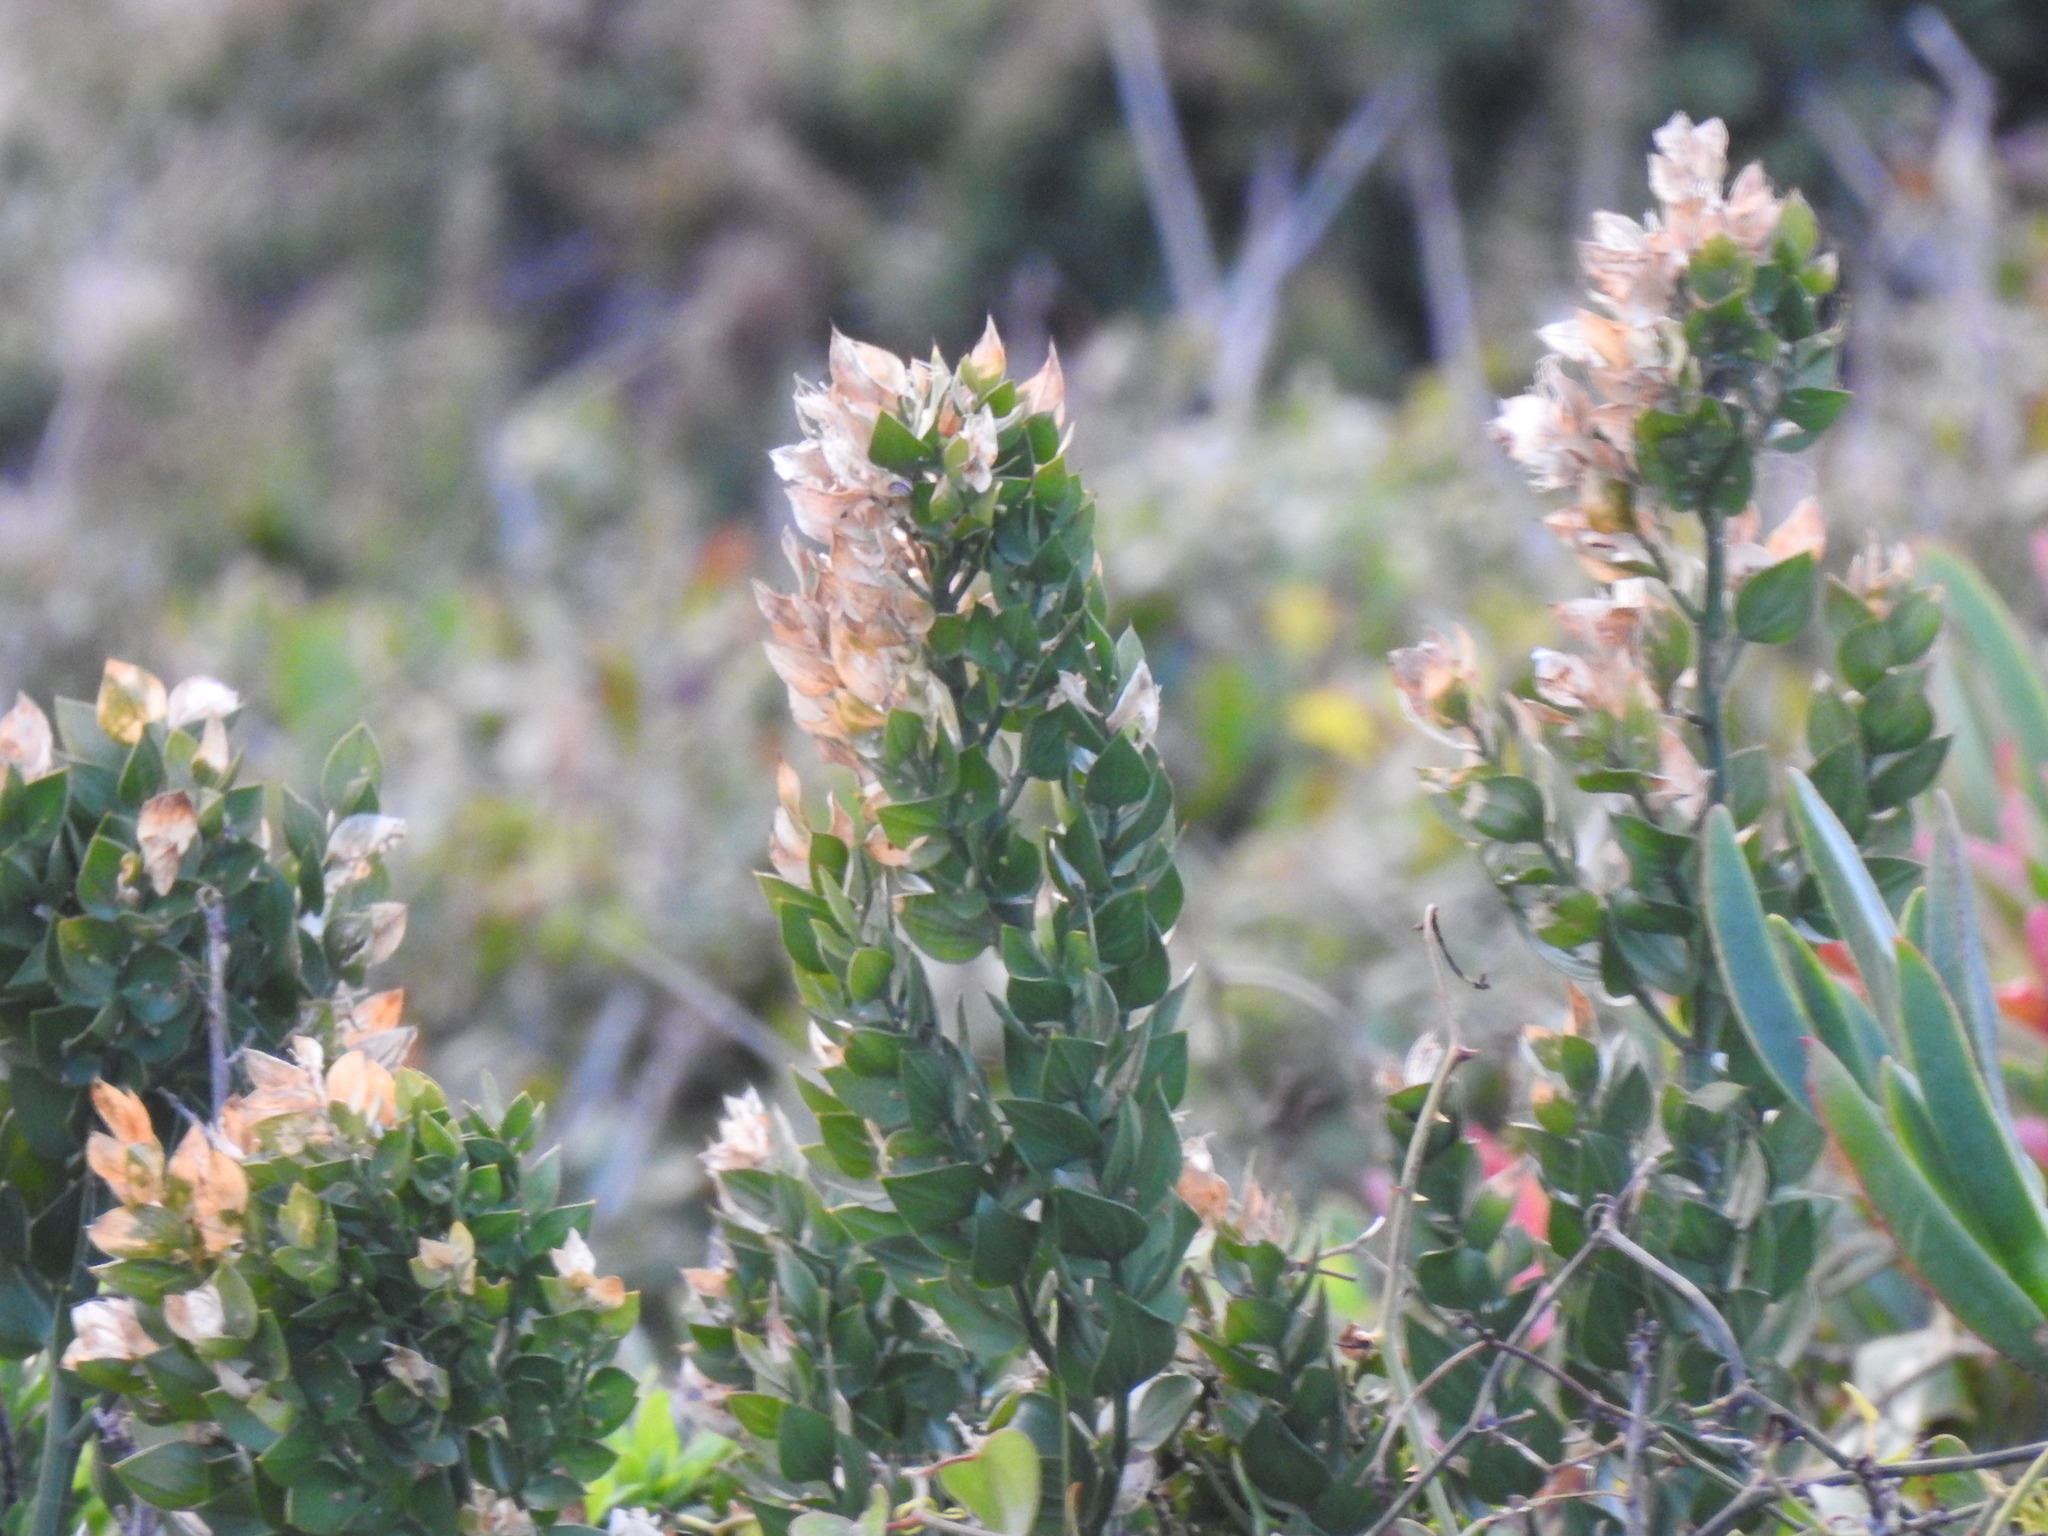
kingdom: Plantae
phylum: Tracheophyta
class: Liliopsida
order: Asparagales
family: Asparagaceae
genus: Ruscus
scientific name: Ruscus aculeatus
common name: Butcher's-broom
